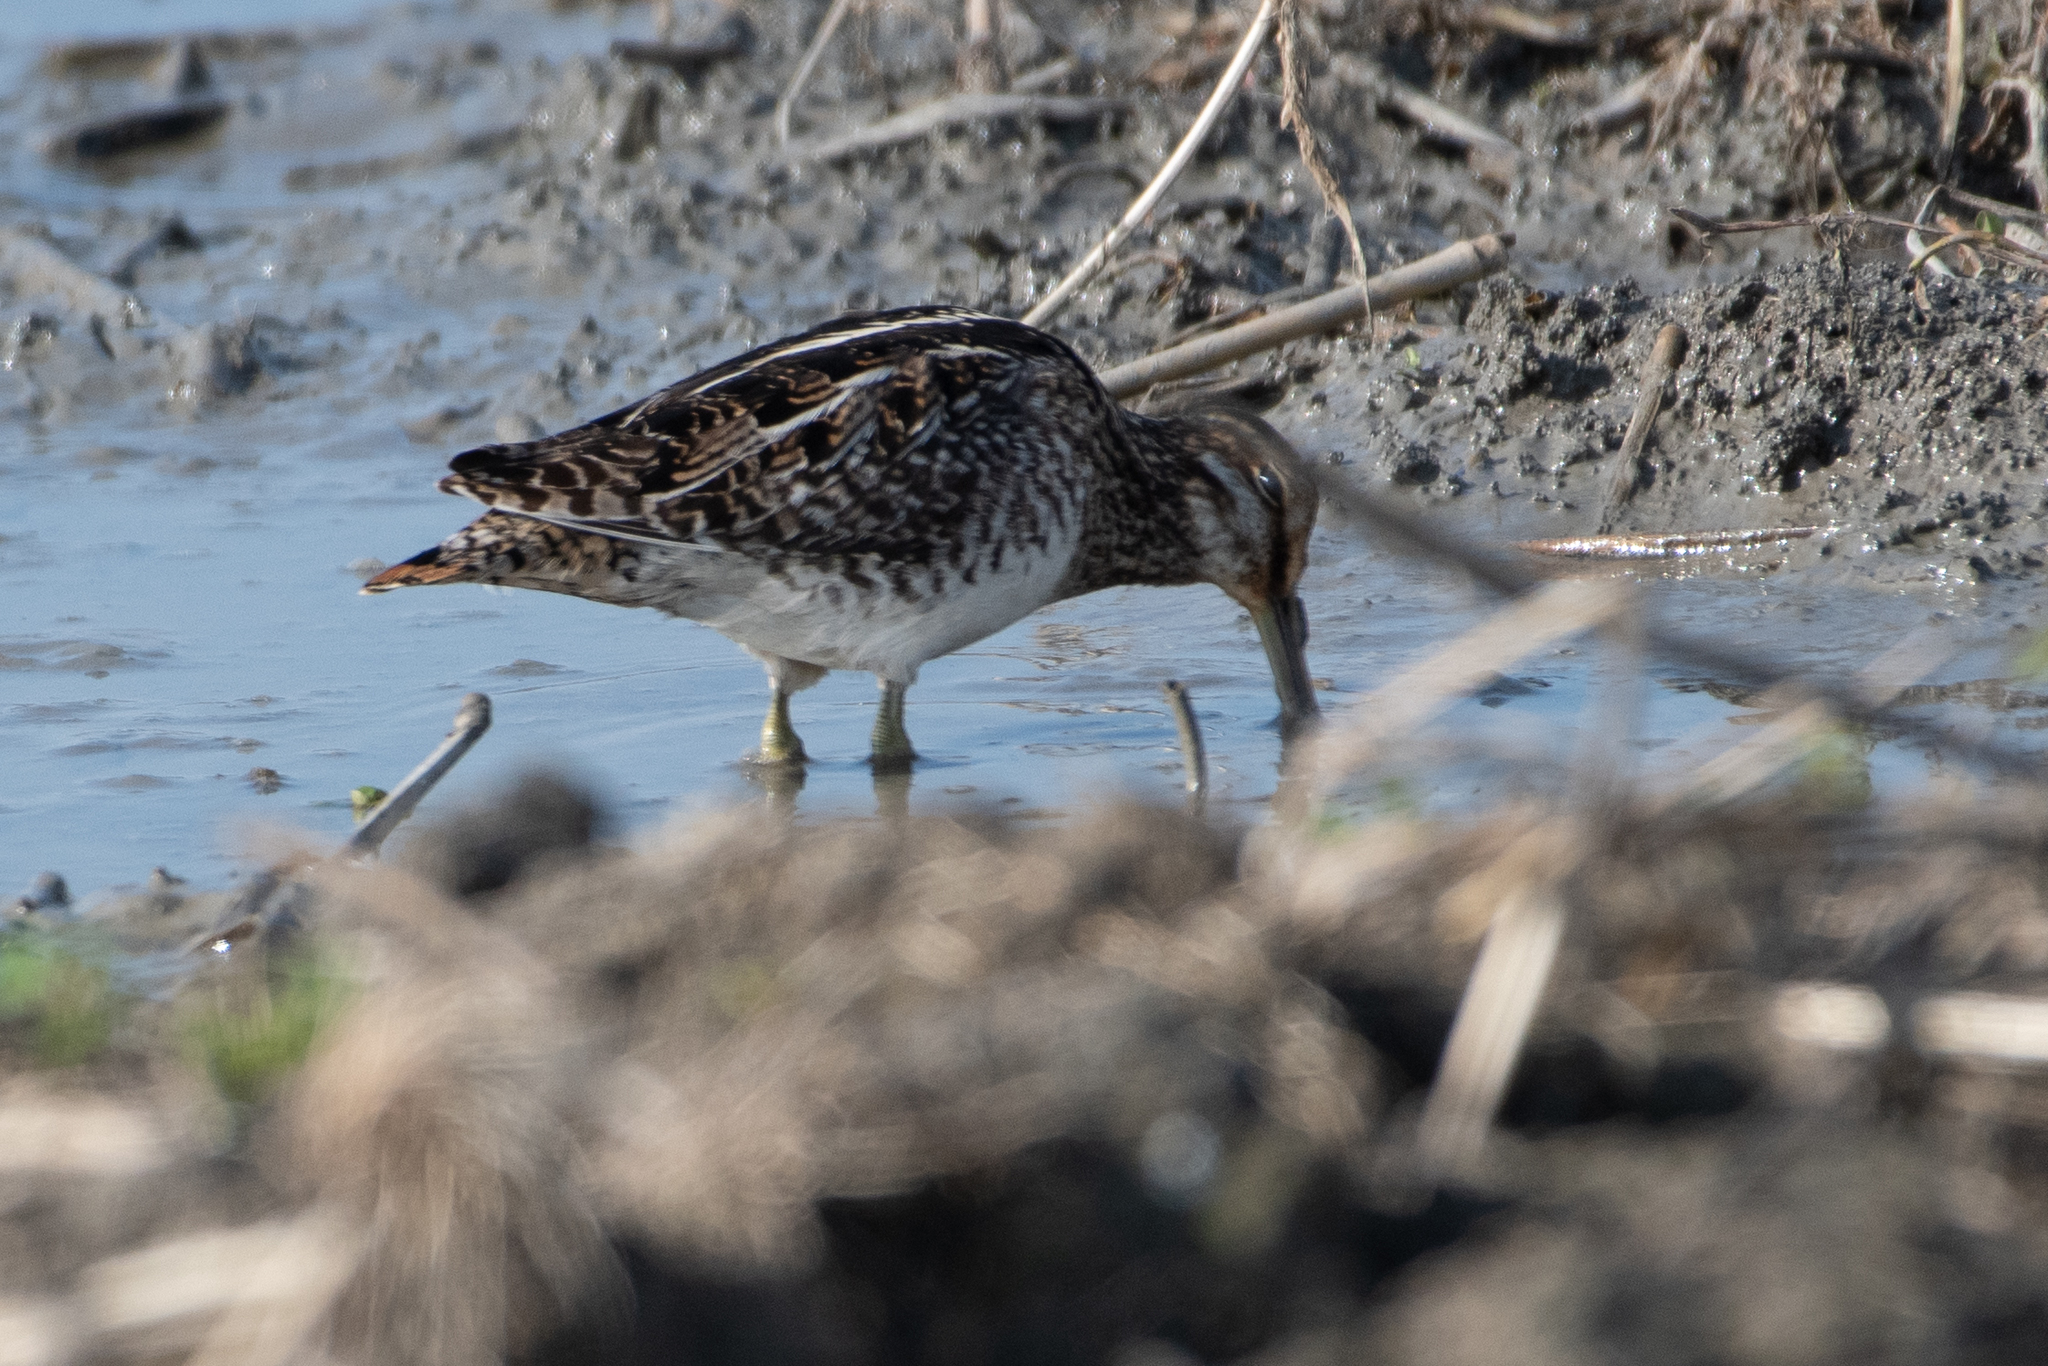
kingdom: Animalia
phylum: Chordata
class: Aves
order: Charadriiformes
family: Scolopacidae
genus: Gallinago
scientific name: Gallinago delicata
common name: Wilson's snipe
